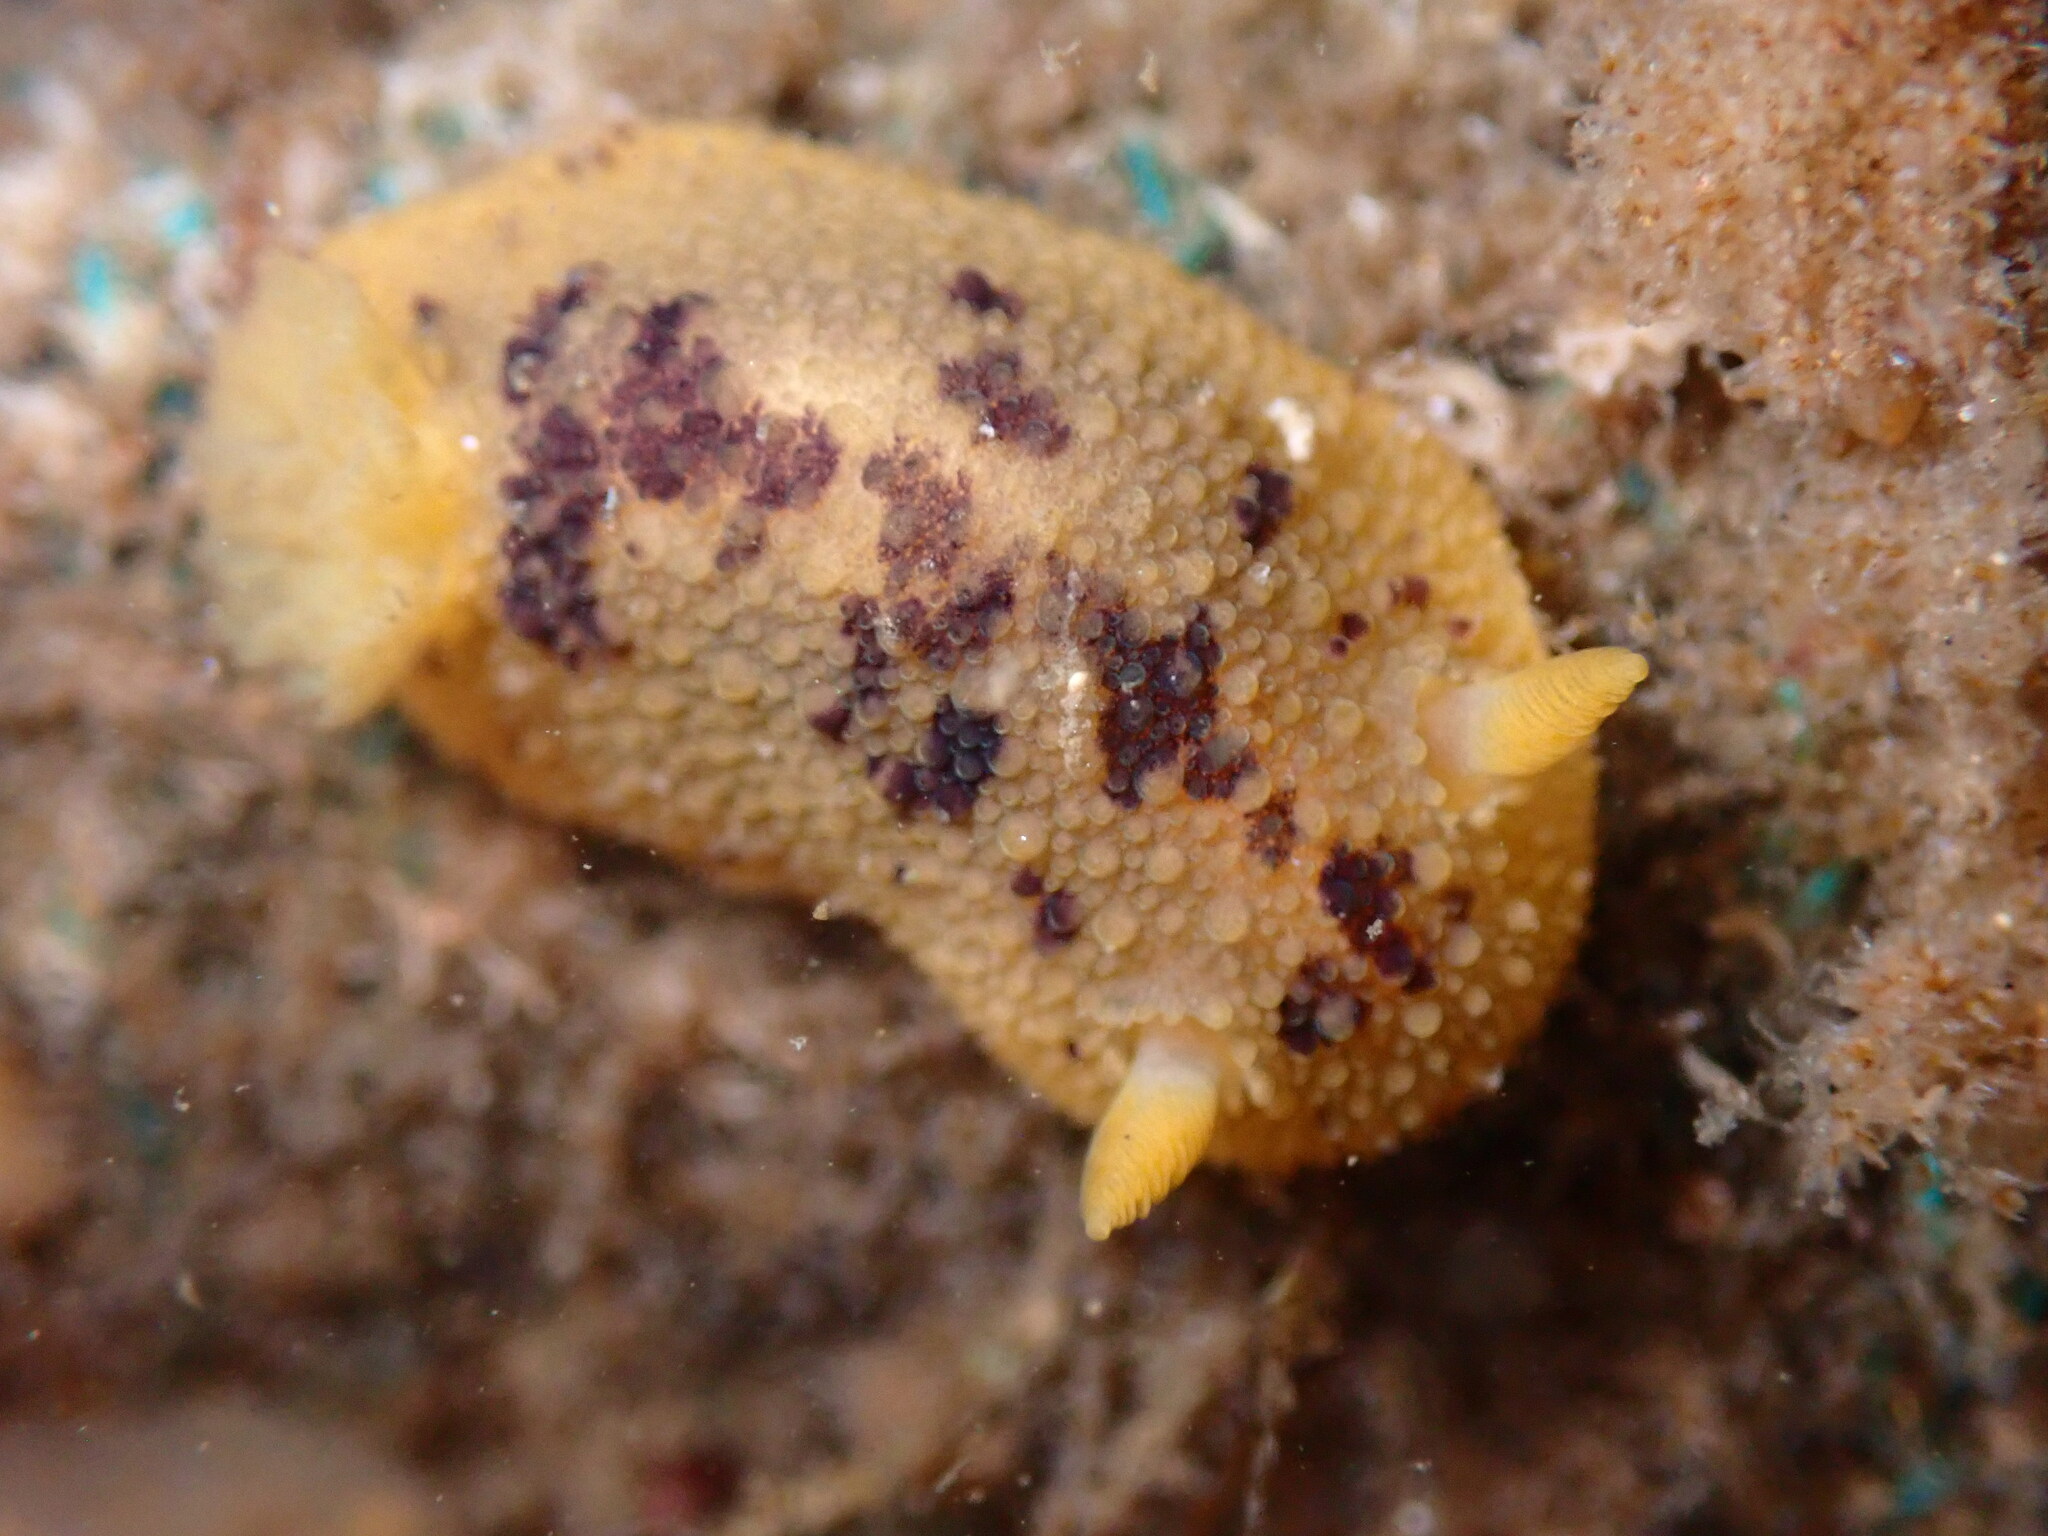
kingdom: Animalia
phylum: Mollusca
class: Gastropoda
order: Nudibranchia
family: Dorididae
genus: Doris
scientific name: Doris montereyensis
